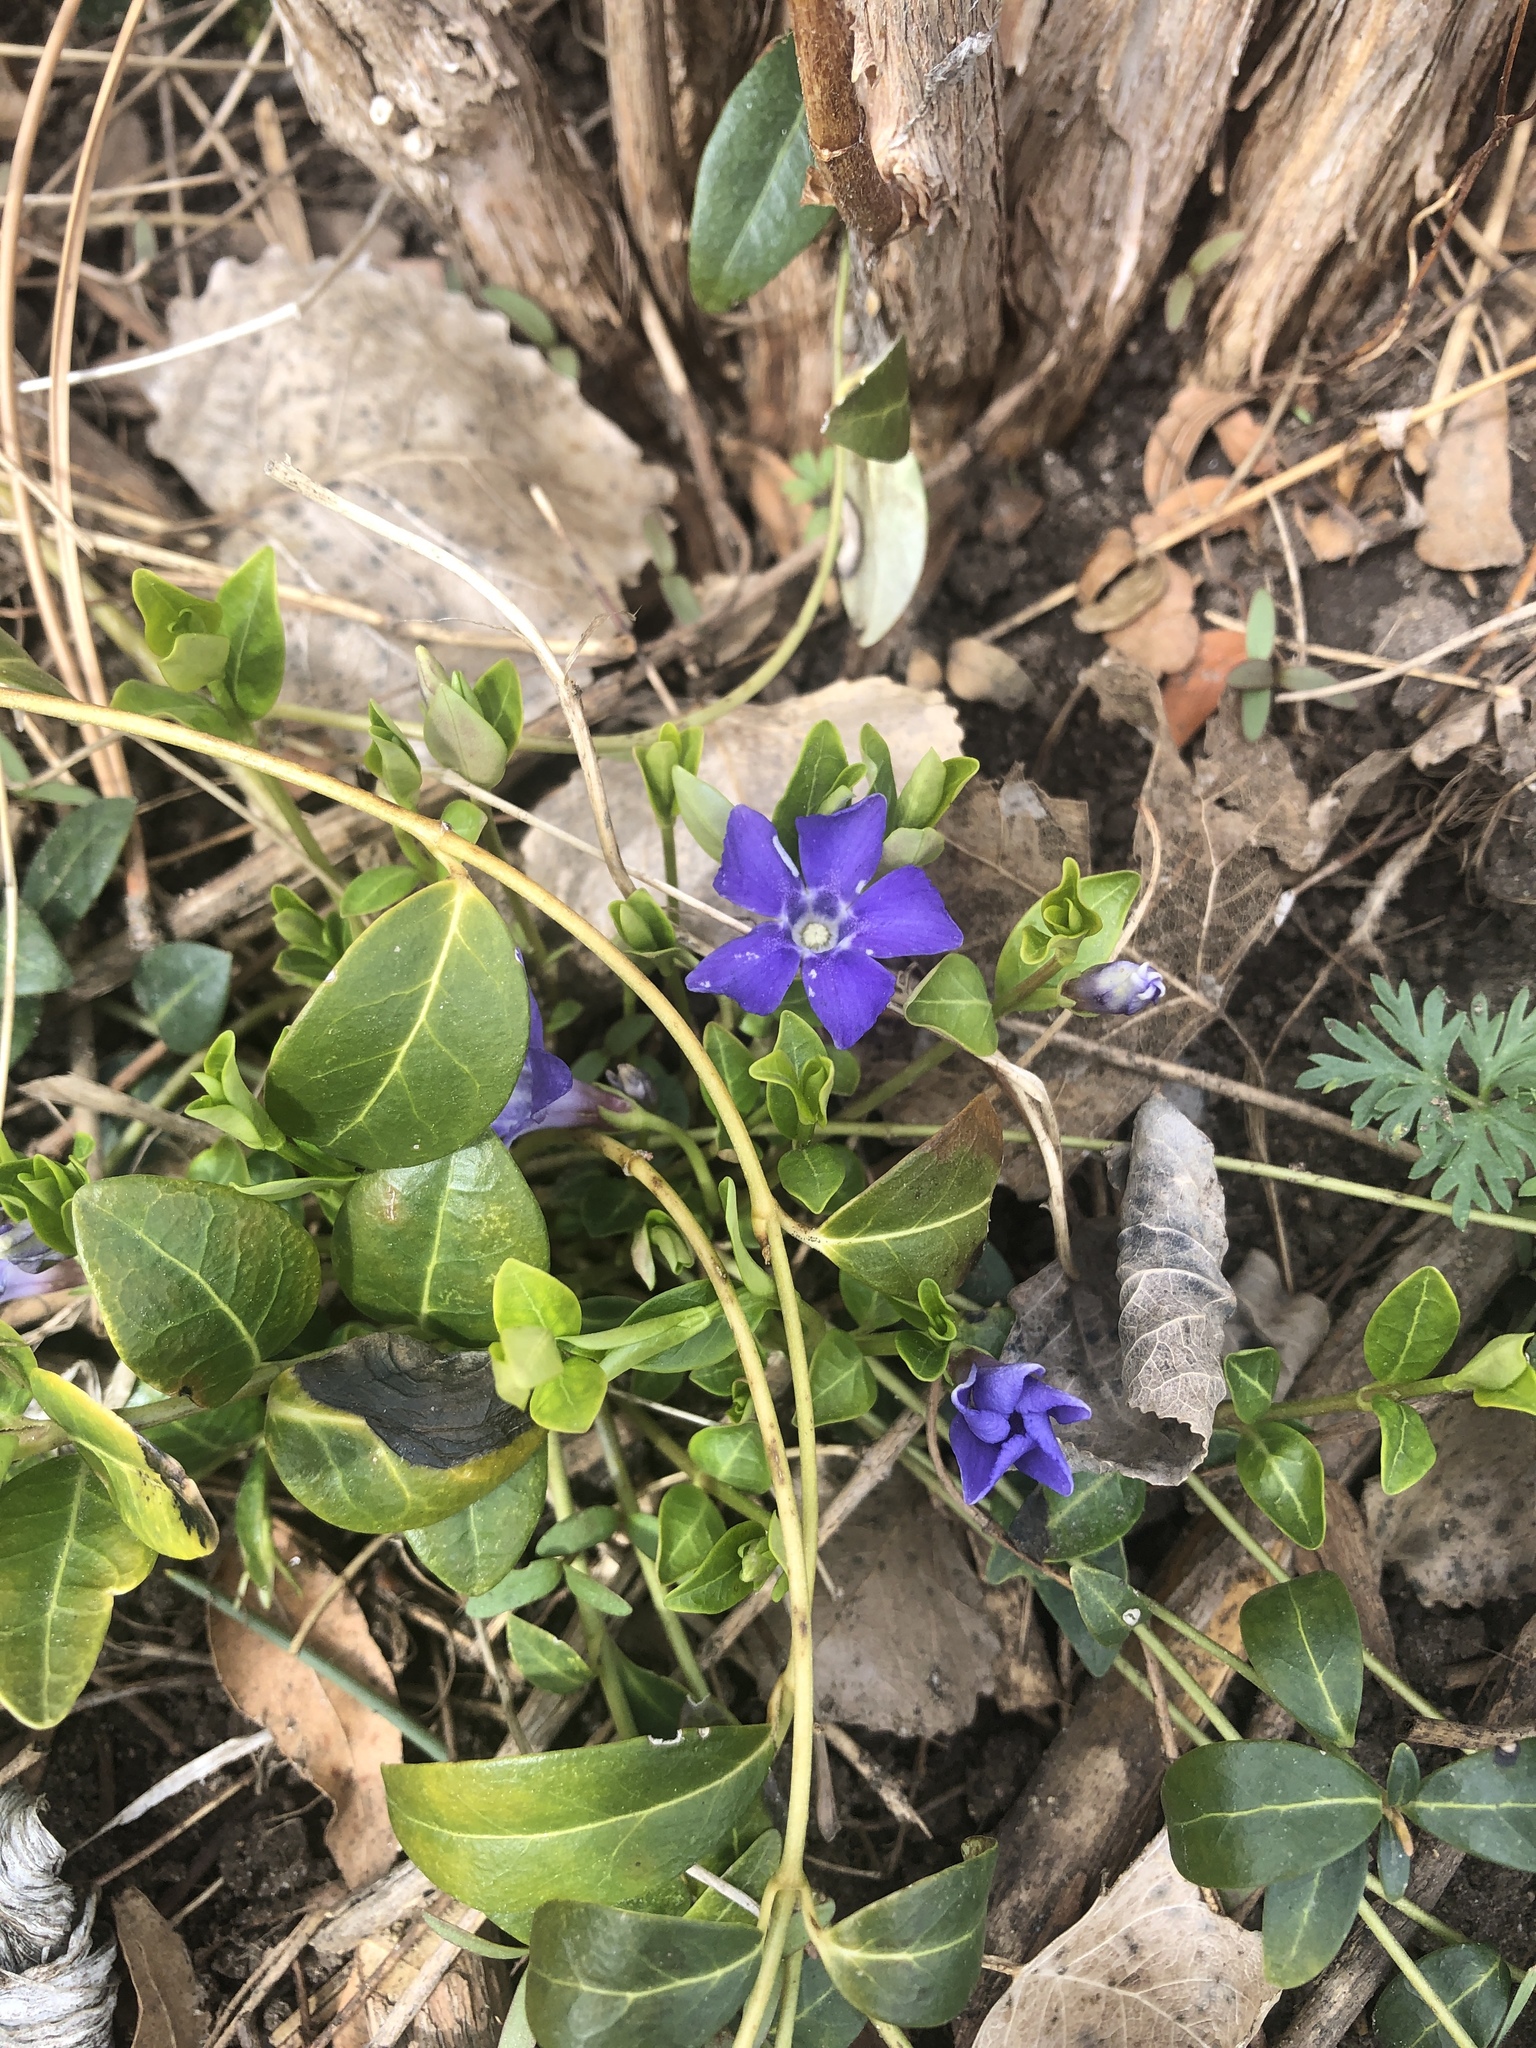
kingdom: Plantae
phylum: Tracheophyta
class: Magnoliopsida
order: Gentianales
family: Apocynaceae
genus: Vinca
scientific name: Vinca minor
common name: Lesser periwinkle
